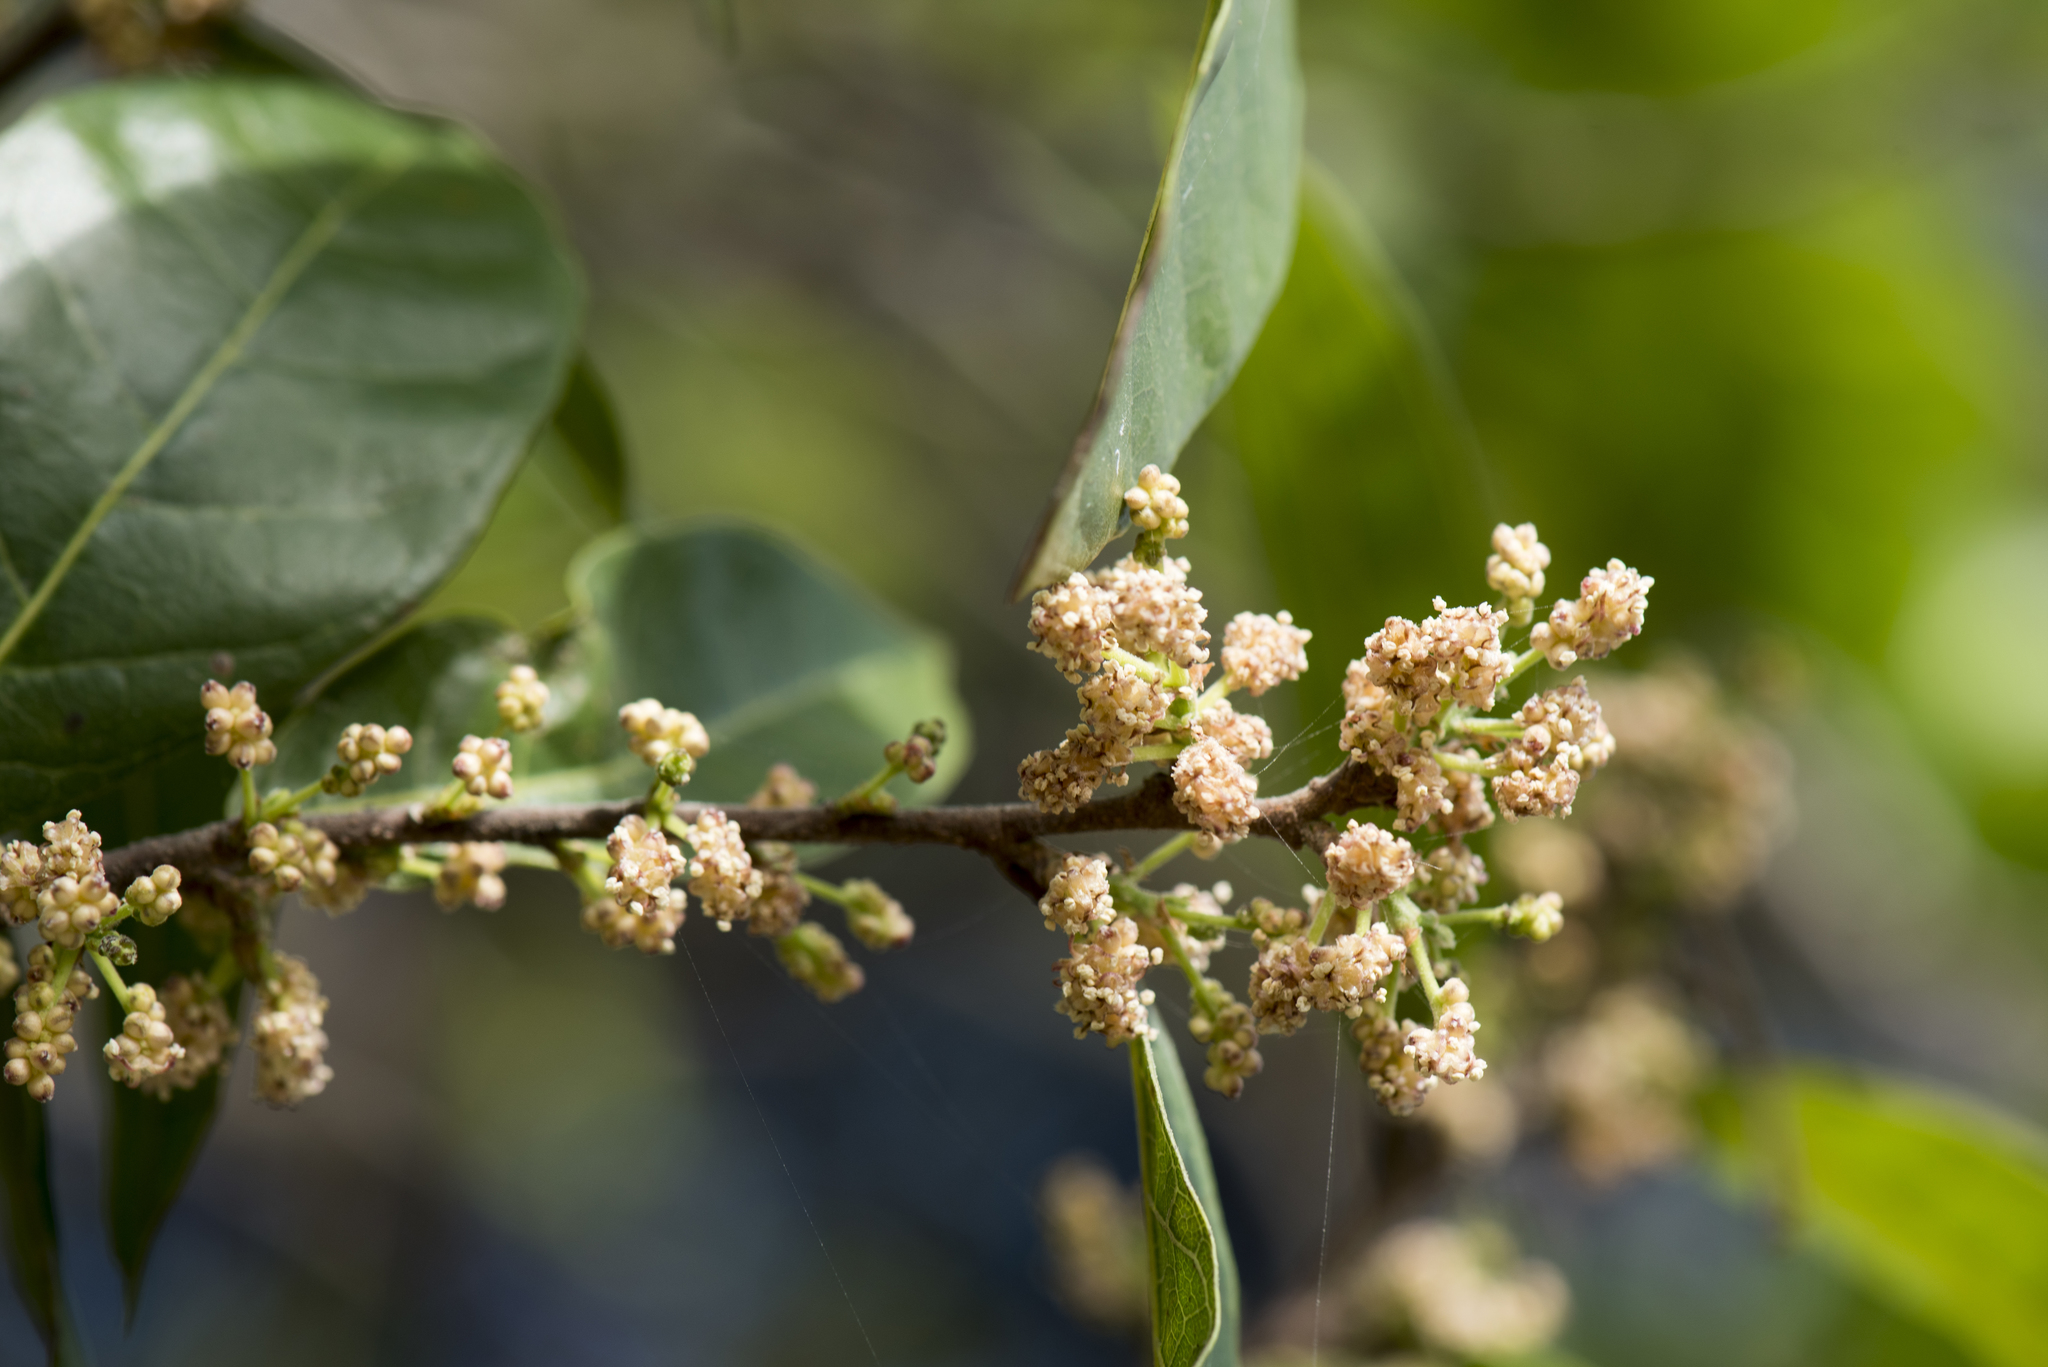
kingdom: Plantae
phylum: Tracheophyta
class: Magnoliopsida
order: Rosales
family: Moraceae
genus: Malaisia
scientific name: Malaisia scandens
